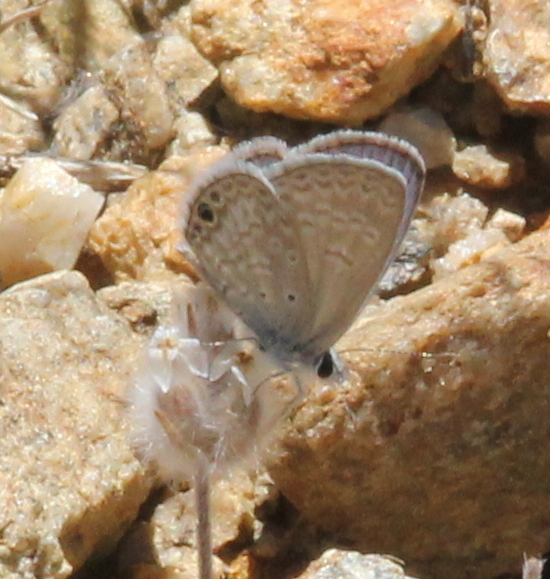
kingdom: Animalia
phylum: Arthropoda
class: Insecta
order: Lepidoptera
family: Lycaenidae
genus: Hemiargus
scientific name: Hemiargus ceraunus
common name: Ceraunus blue
